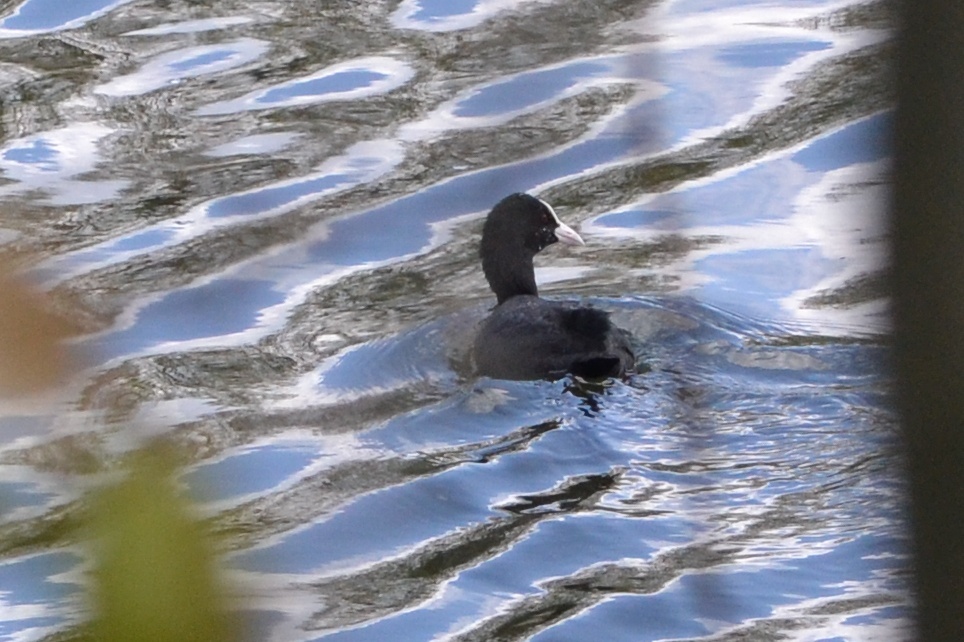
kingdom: Animalia
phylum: Chordata
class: Aves
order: Gruiformes
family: Rallidae
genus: Fulica
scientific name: Fulica atra
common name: Eurasian coot
